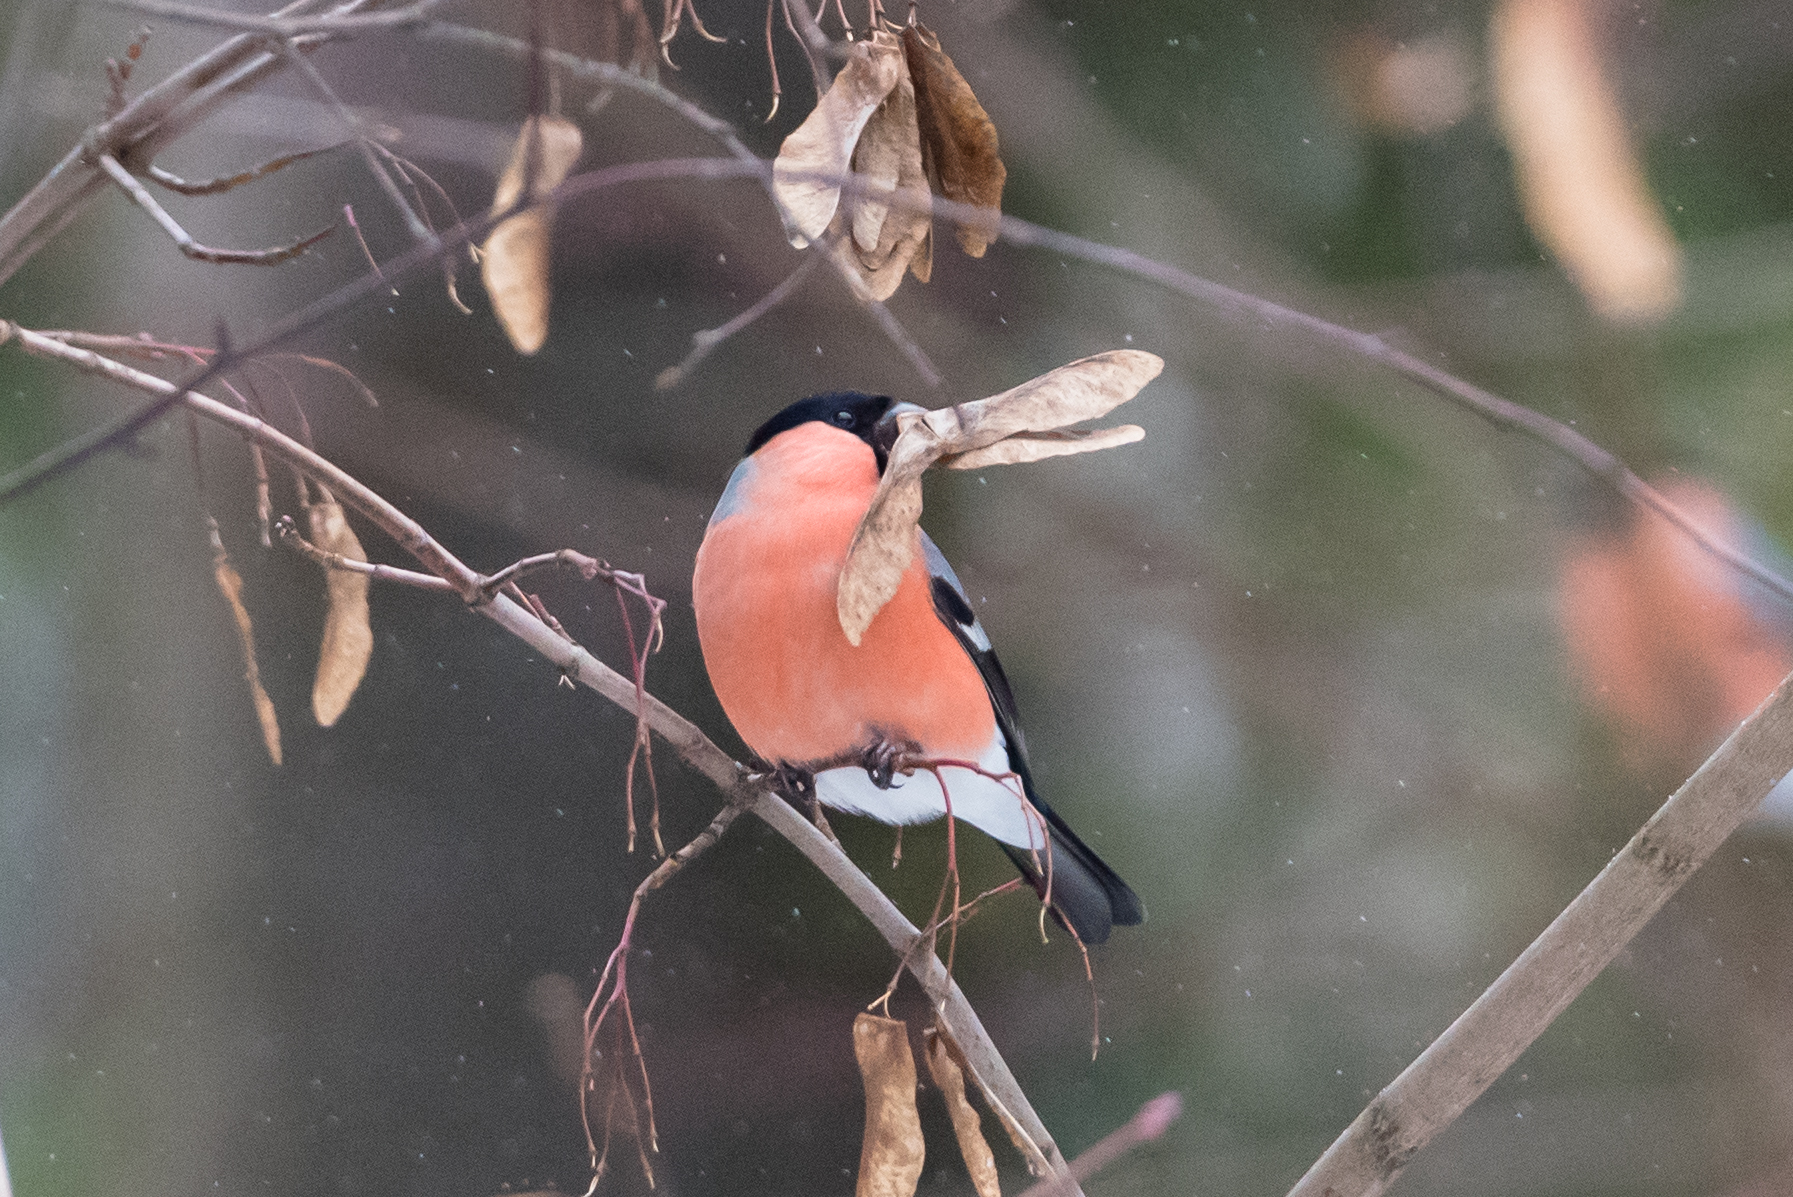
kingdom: Animalia
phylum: Chordata
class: Aves
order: Passeriformes
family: Fringillidae
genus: Pyrrhula
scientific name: Pyrrhula pyrrhula
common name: Eurasian bullfinch
